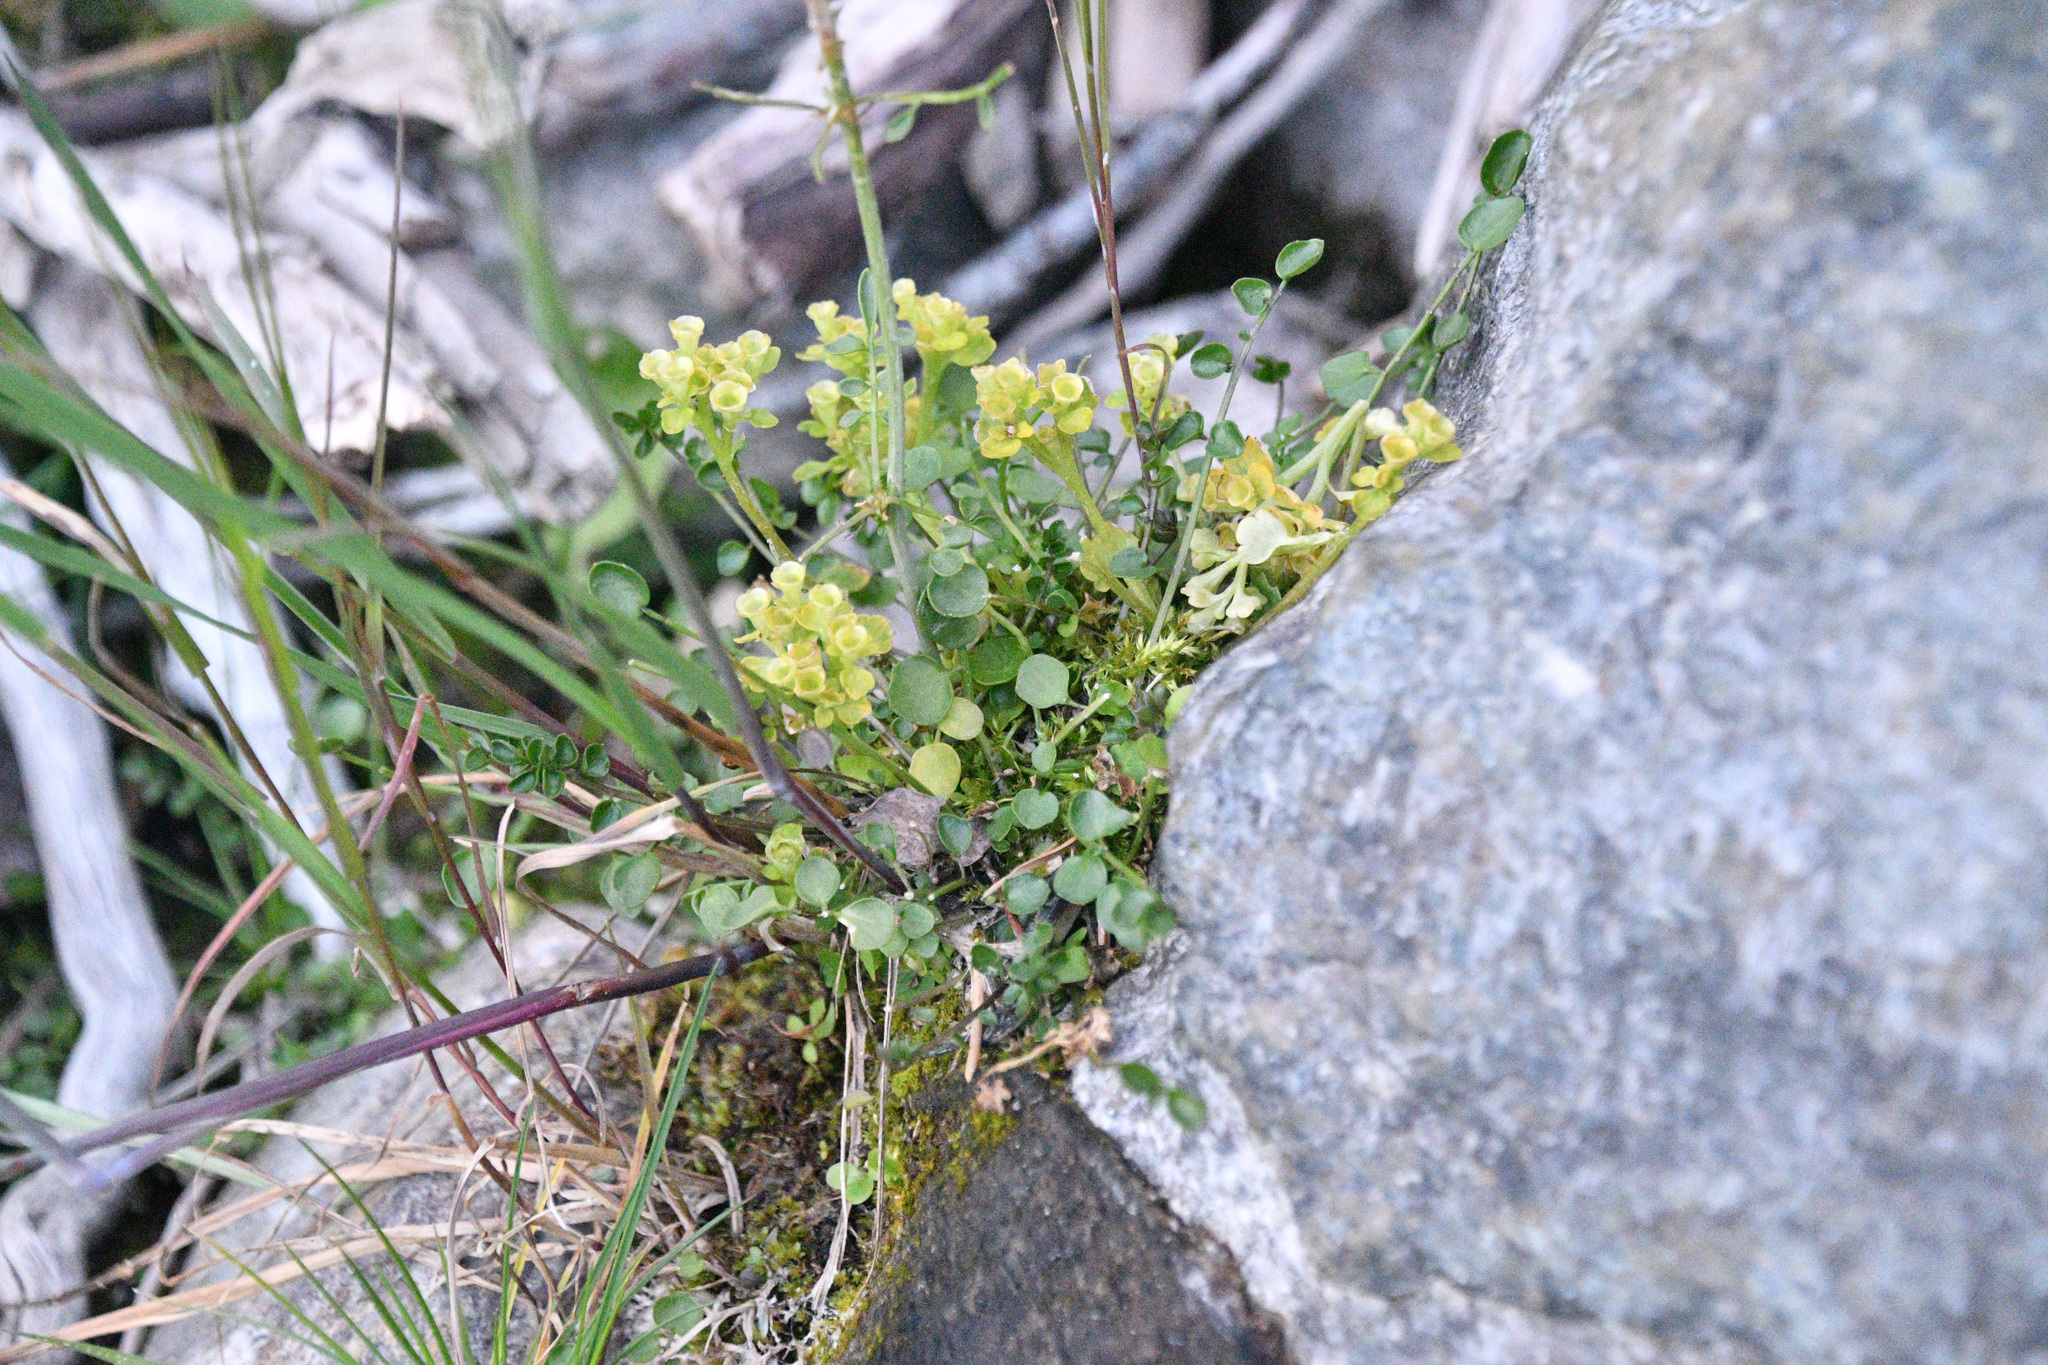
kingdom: Plantae
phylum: Tracheophyta
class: Magnoliopsida
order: Saxifragales
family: Saxifragaceae
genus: Chrysosplenium
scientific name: Chrysosplenium tetrandrum
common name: Green saxifrage
